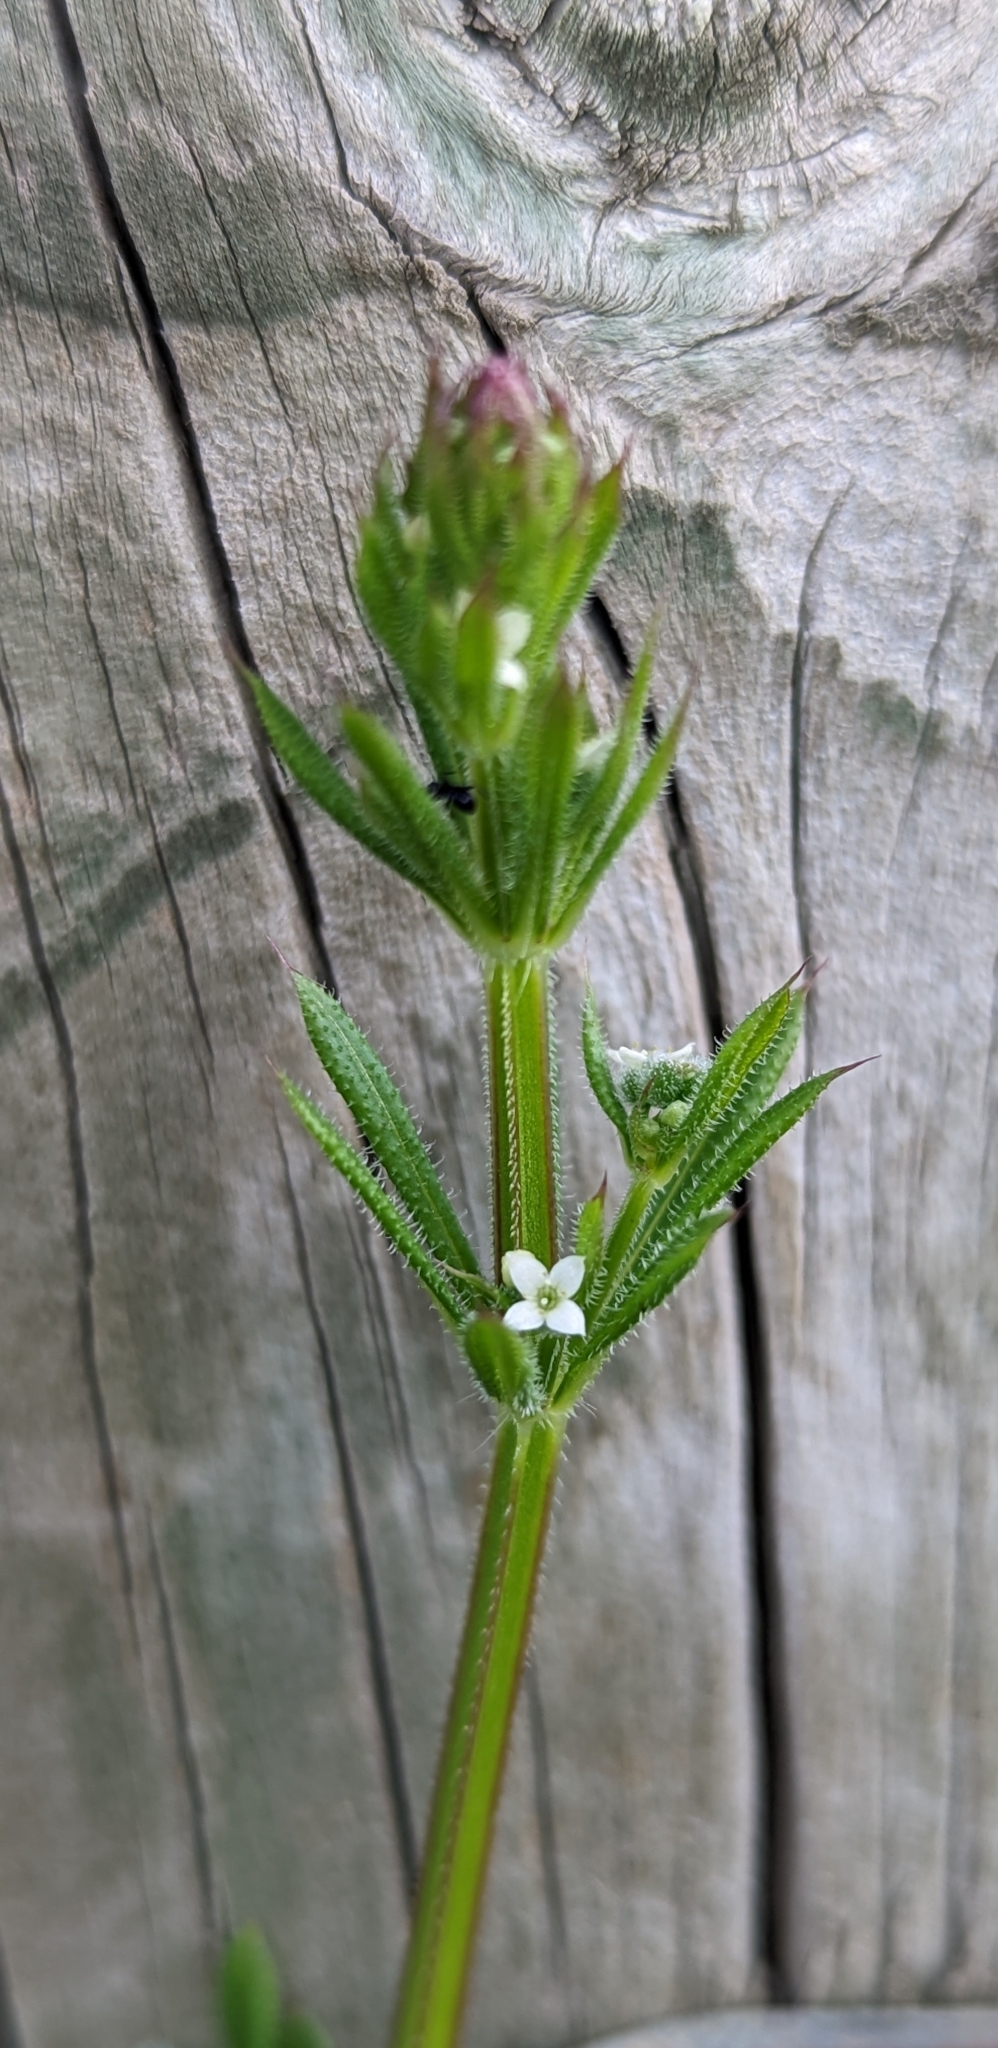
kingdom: Plantae
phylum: Tracheophyta
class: Magnoliopsida
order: Gentianales
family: Rubiaceae
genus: Galium
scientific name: Galium aparine
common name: Cleavers
